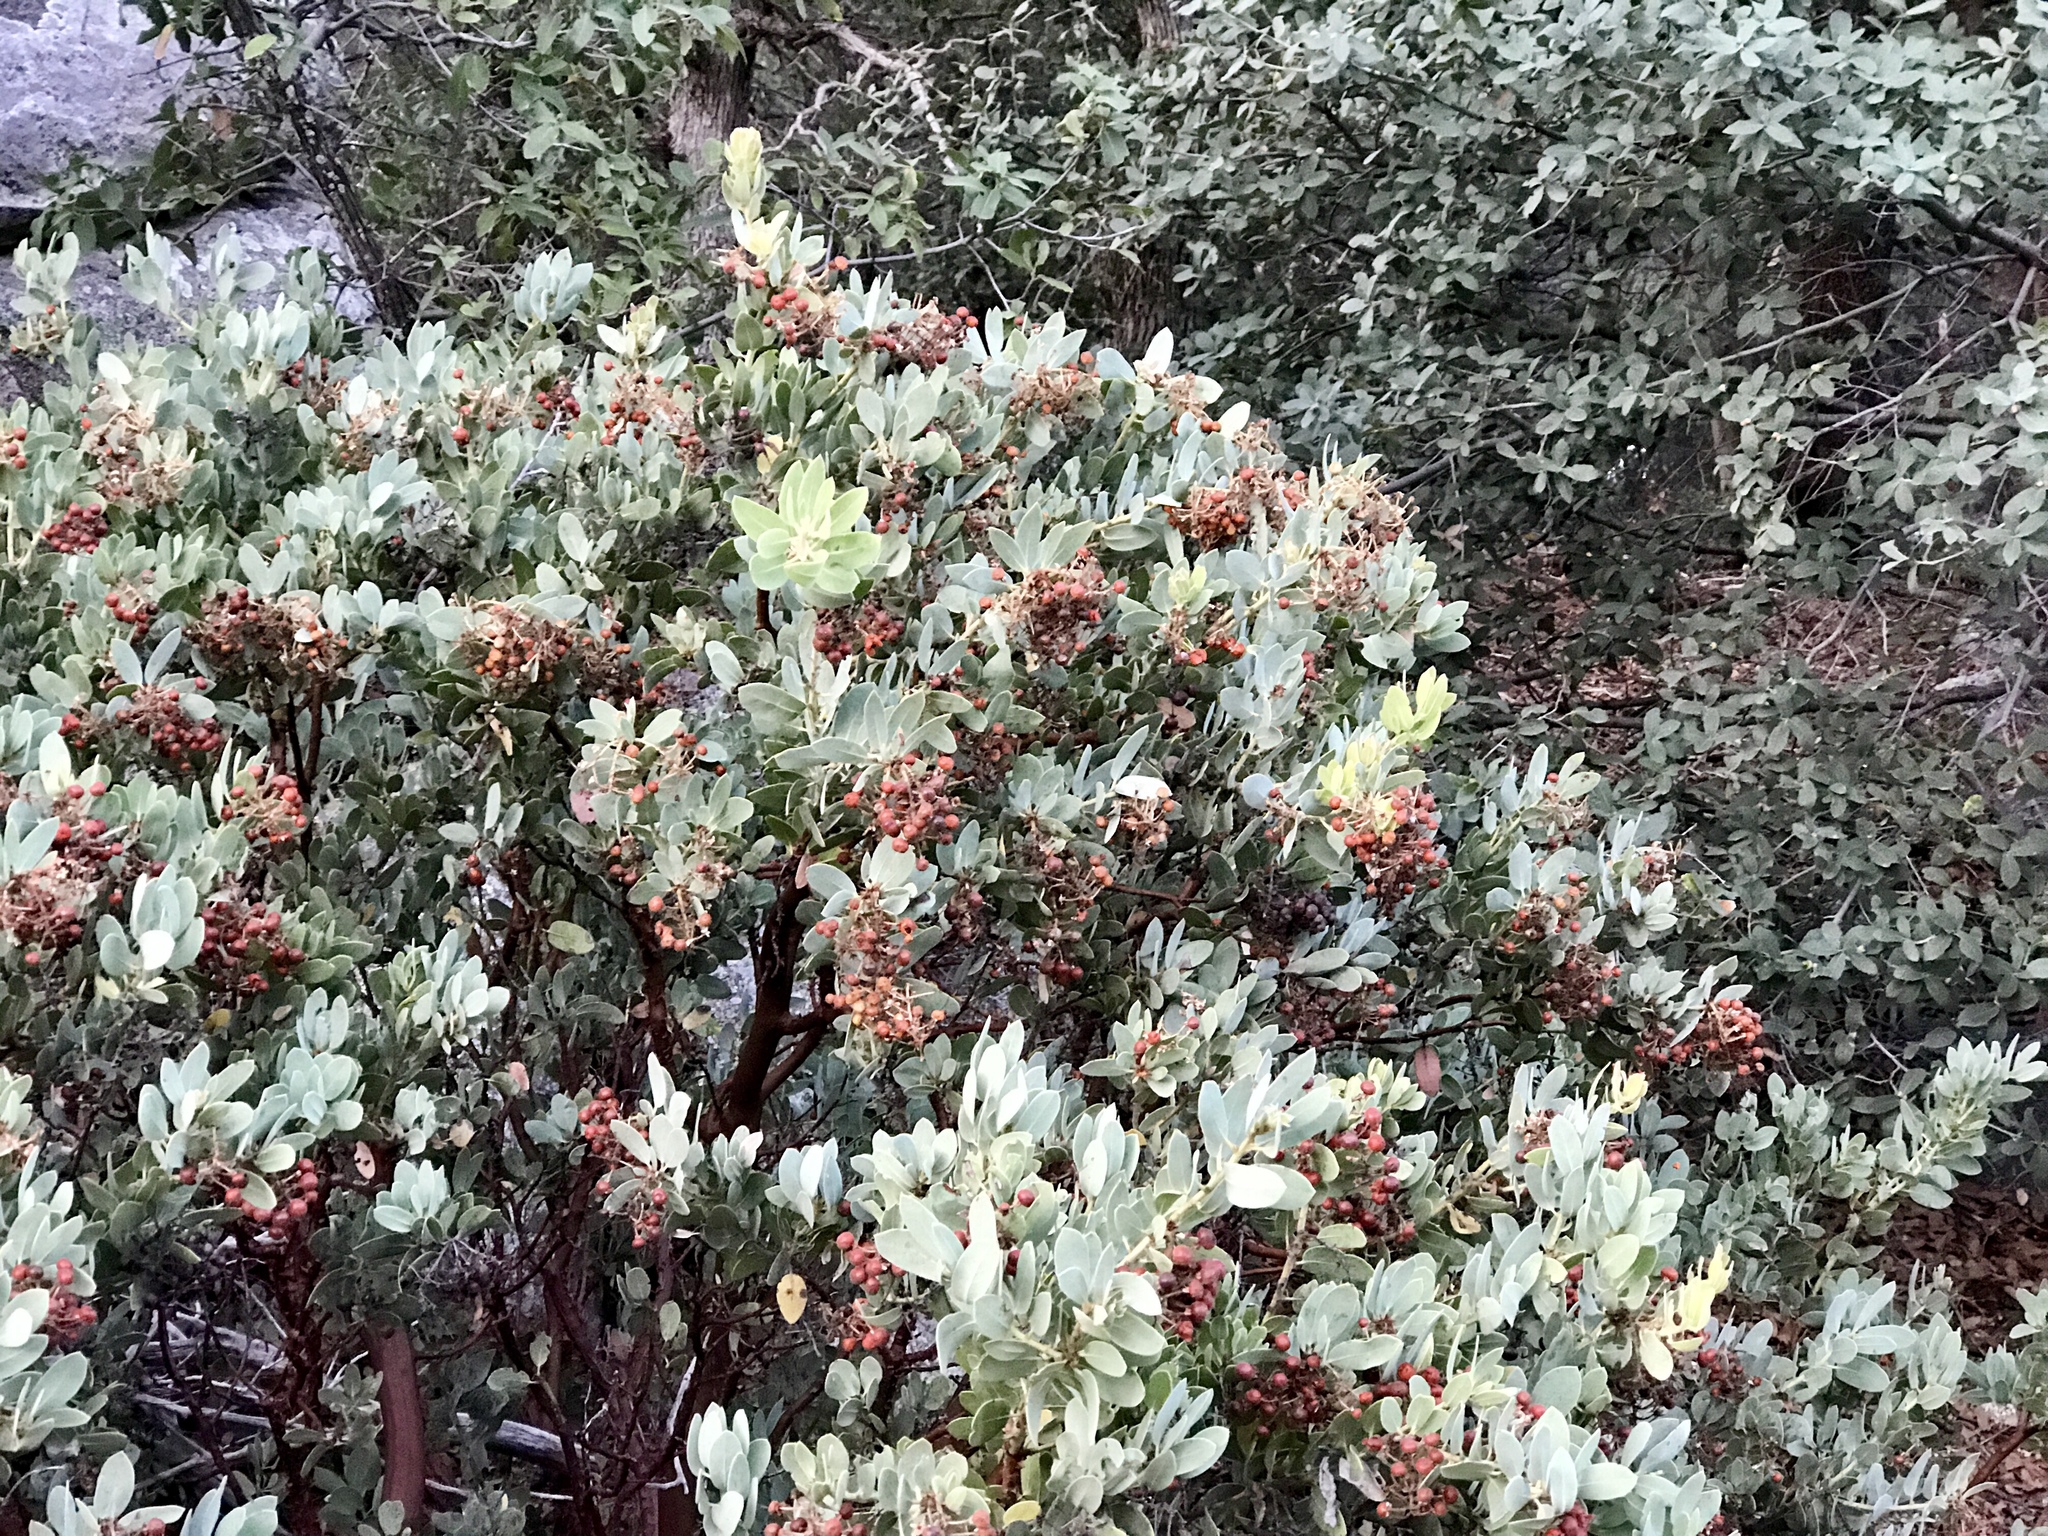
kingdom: Plantae
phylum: Tracheophyta
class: Magnoliopsida
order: Ericales
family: Ericaceae
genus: Arctostaphylos
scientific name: Arctostaphylos pringlei
